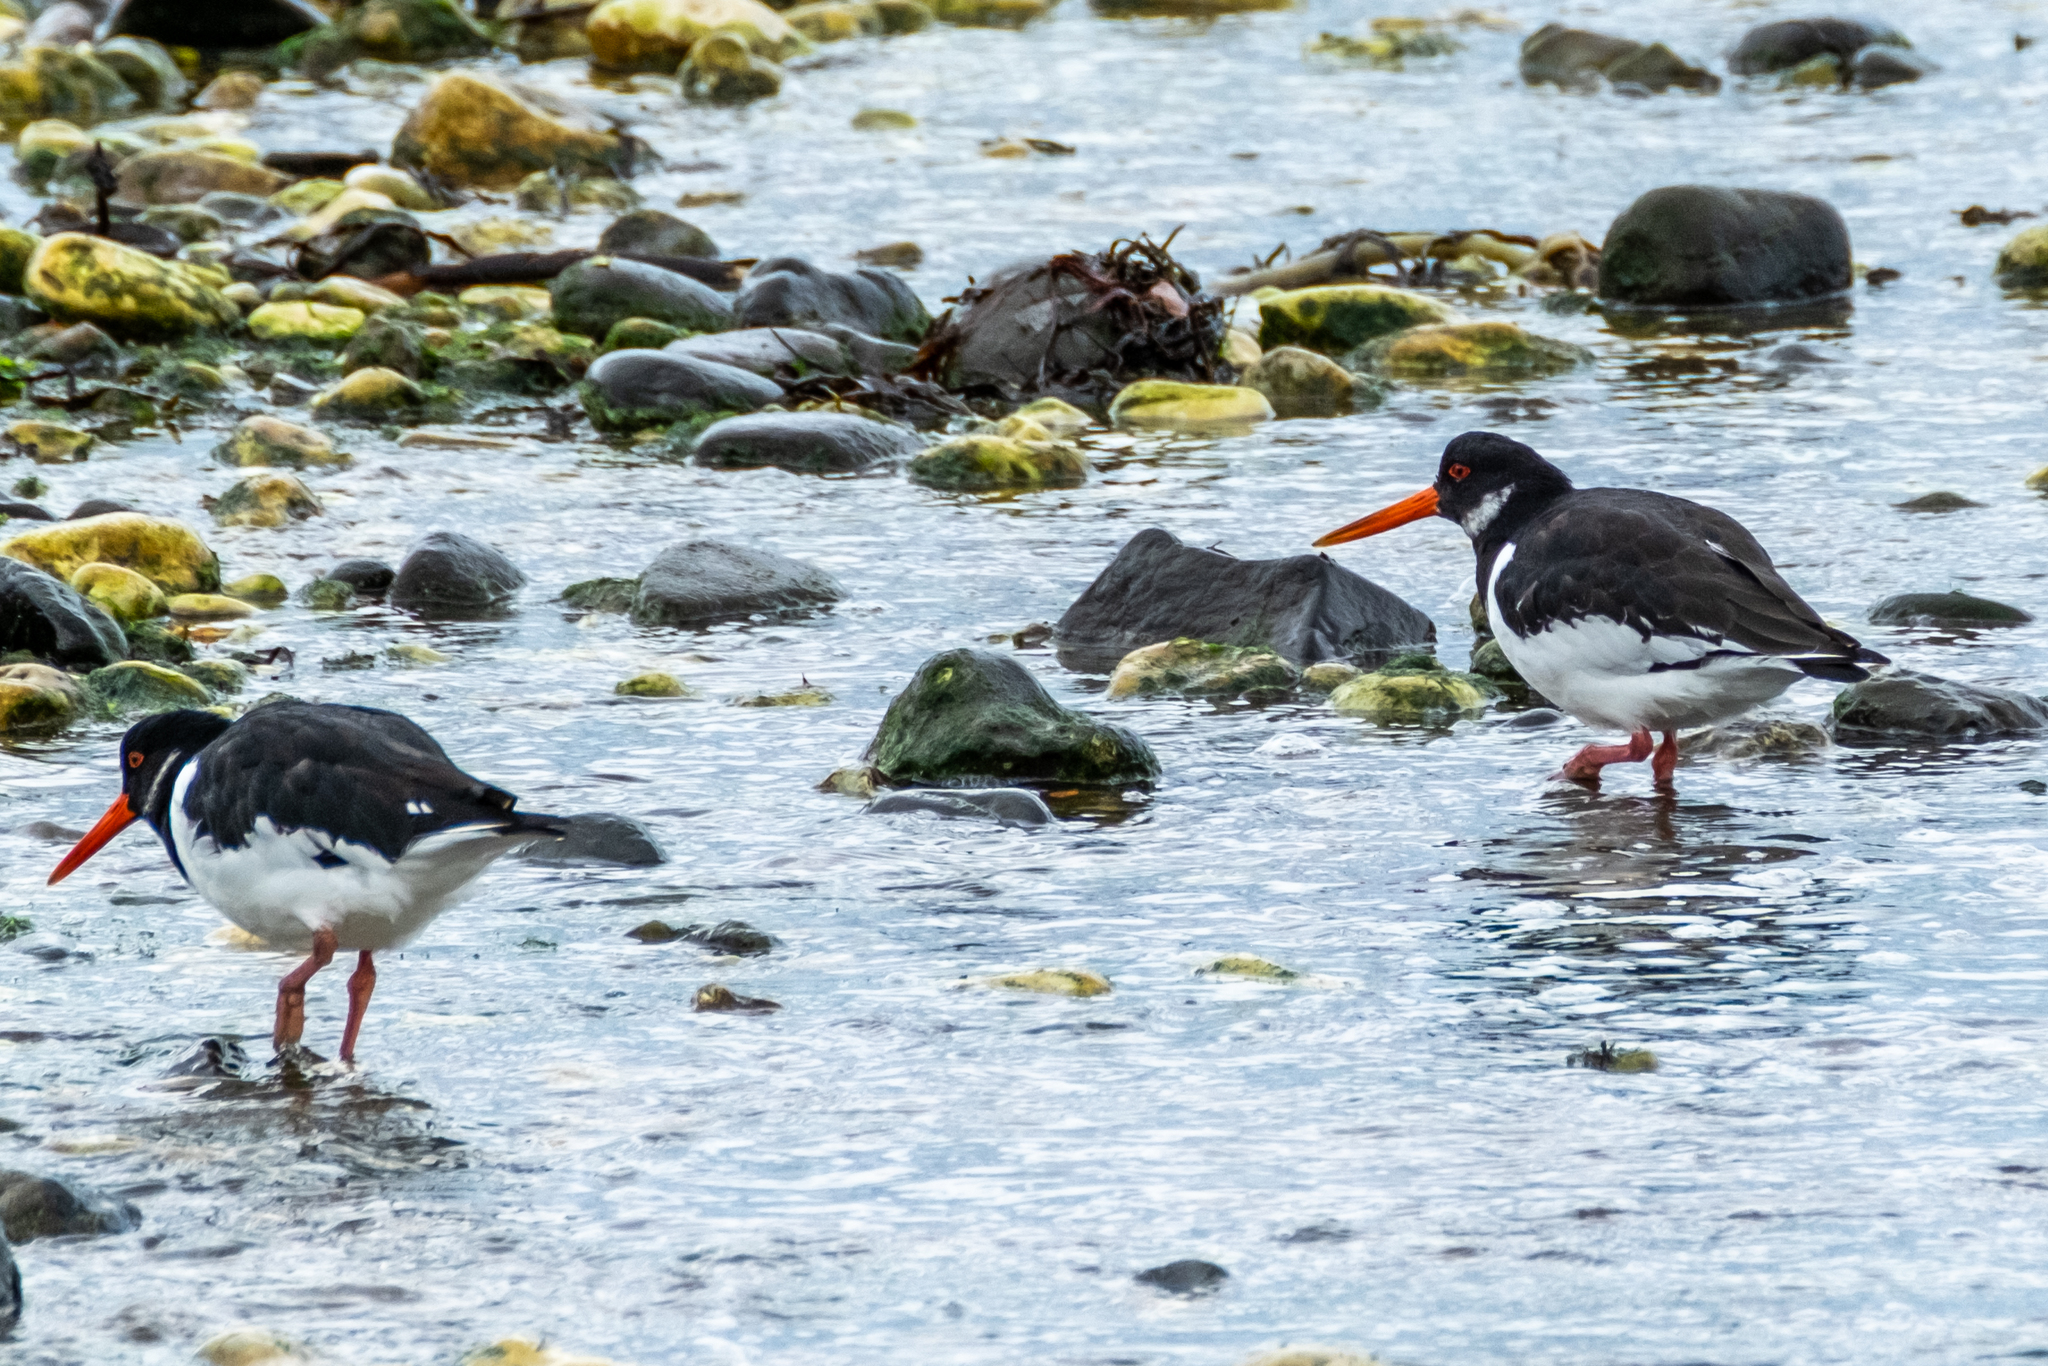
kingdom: Animalia
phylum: Chordata
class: Aves
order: Charadriiformes
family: Haematopodidae
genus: Haematopus
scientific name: Haematopus ostralegus
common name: Eurasian oystercatcher
